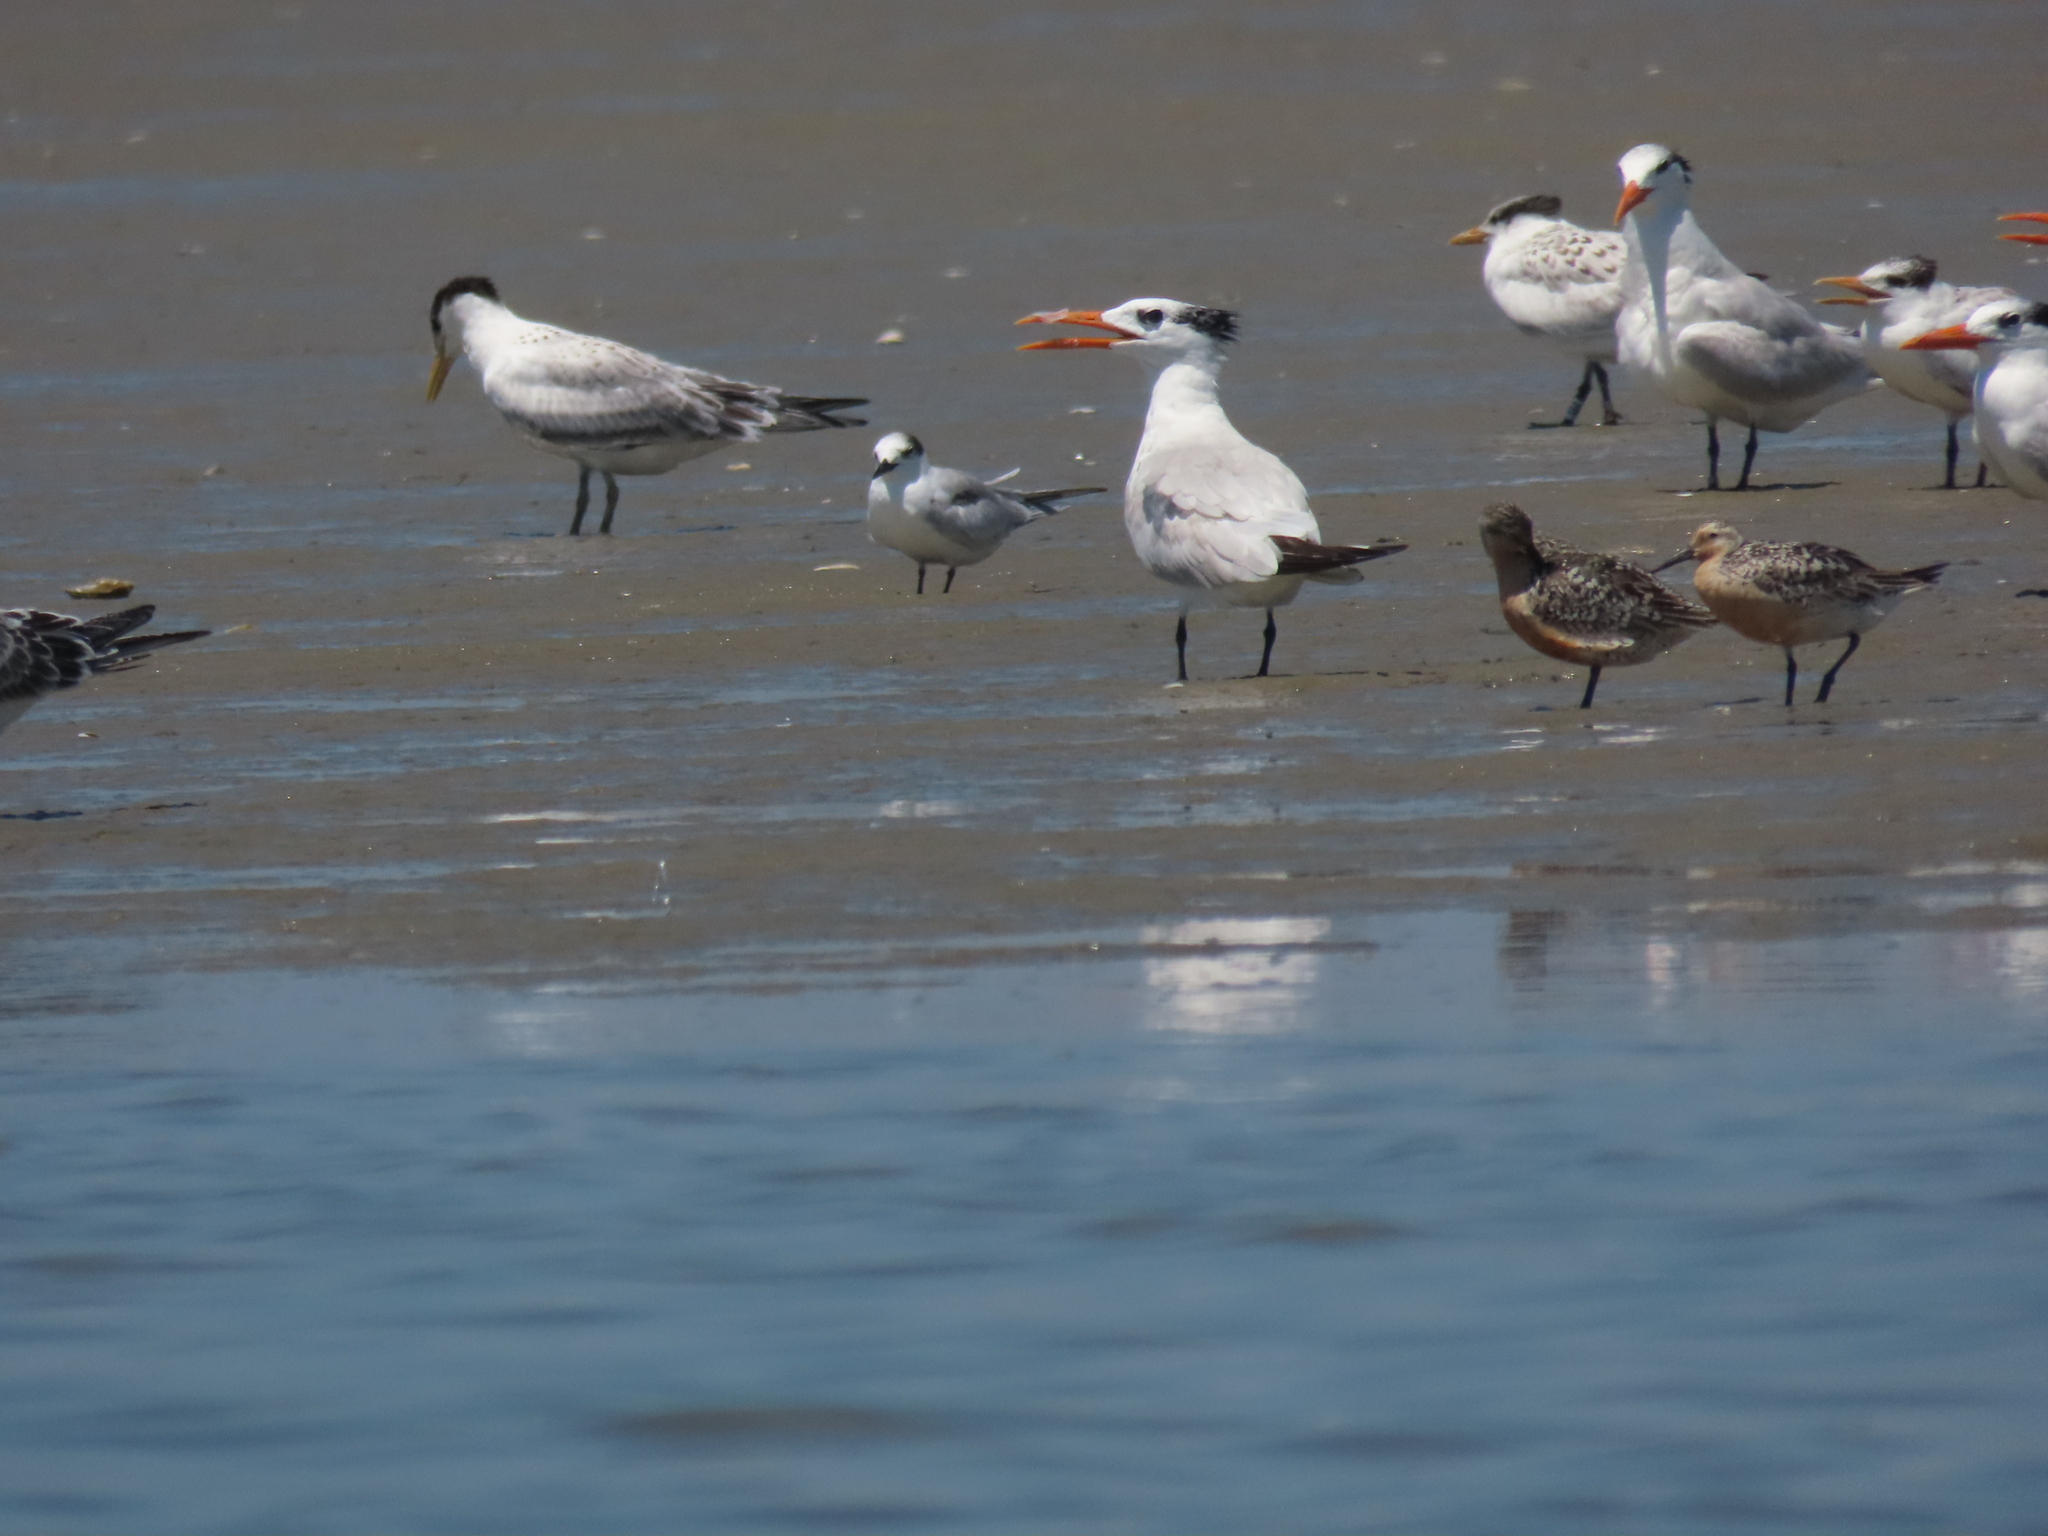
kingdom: Animalia
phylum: Chordata
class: Aves
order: Charadriiformes
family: Scolopacidae
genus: Calidris
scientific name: Calidris canutus
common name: Red knot
